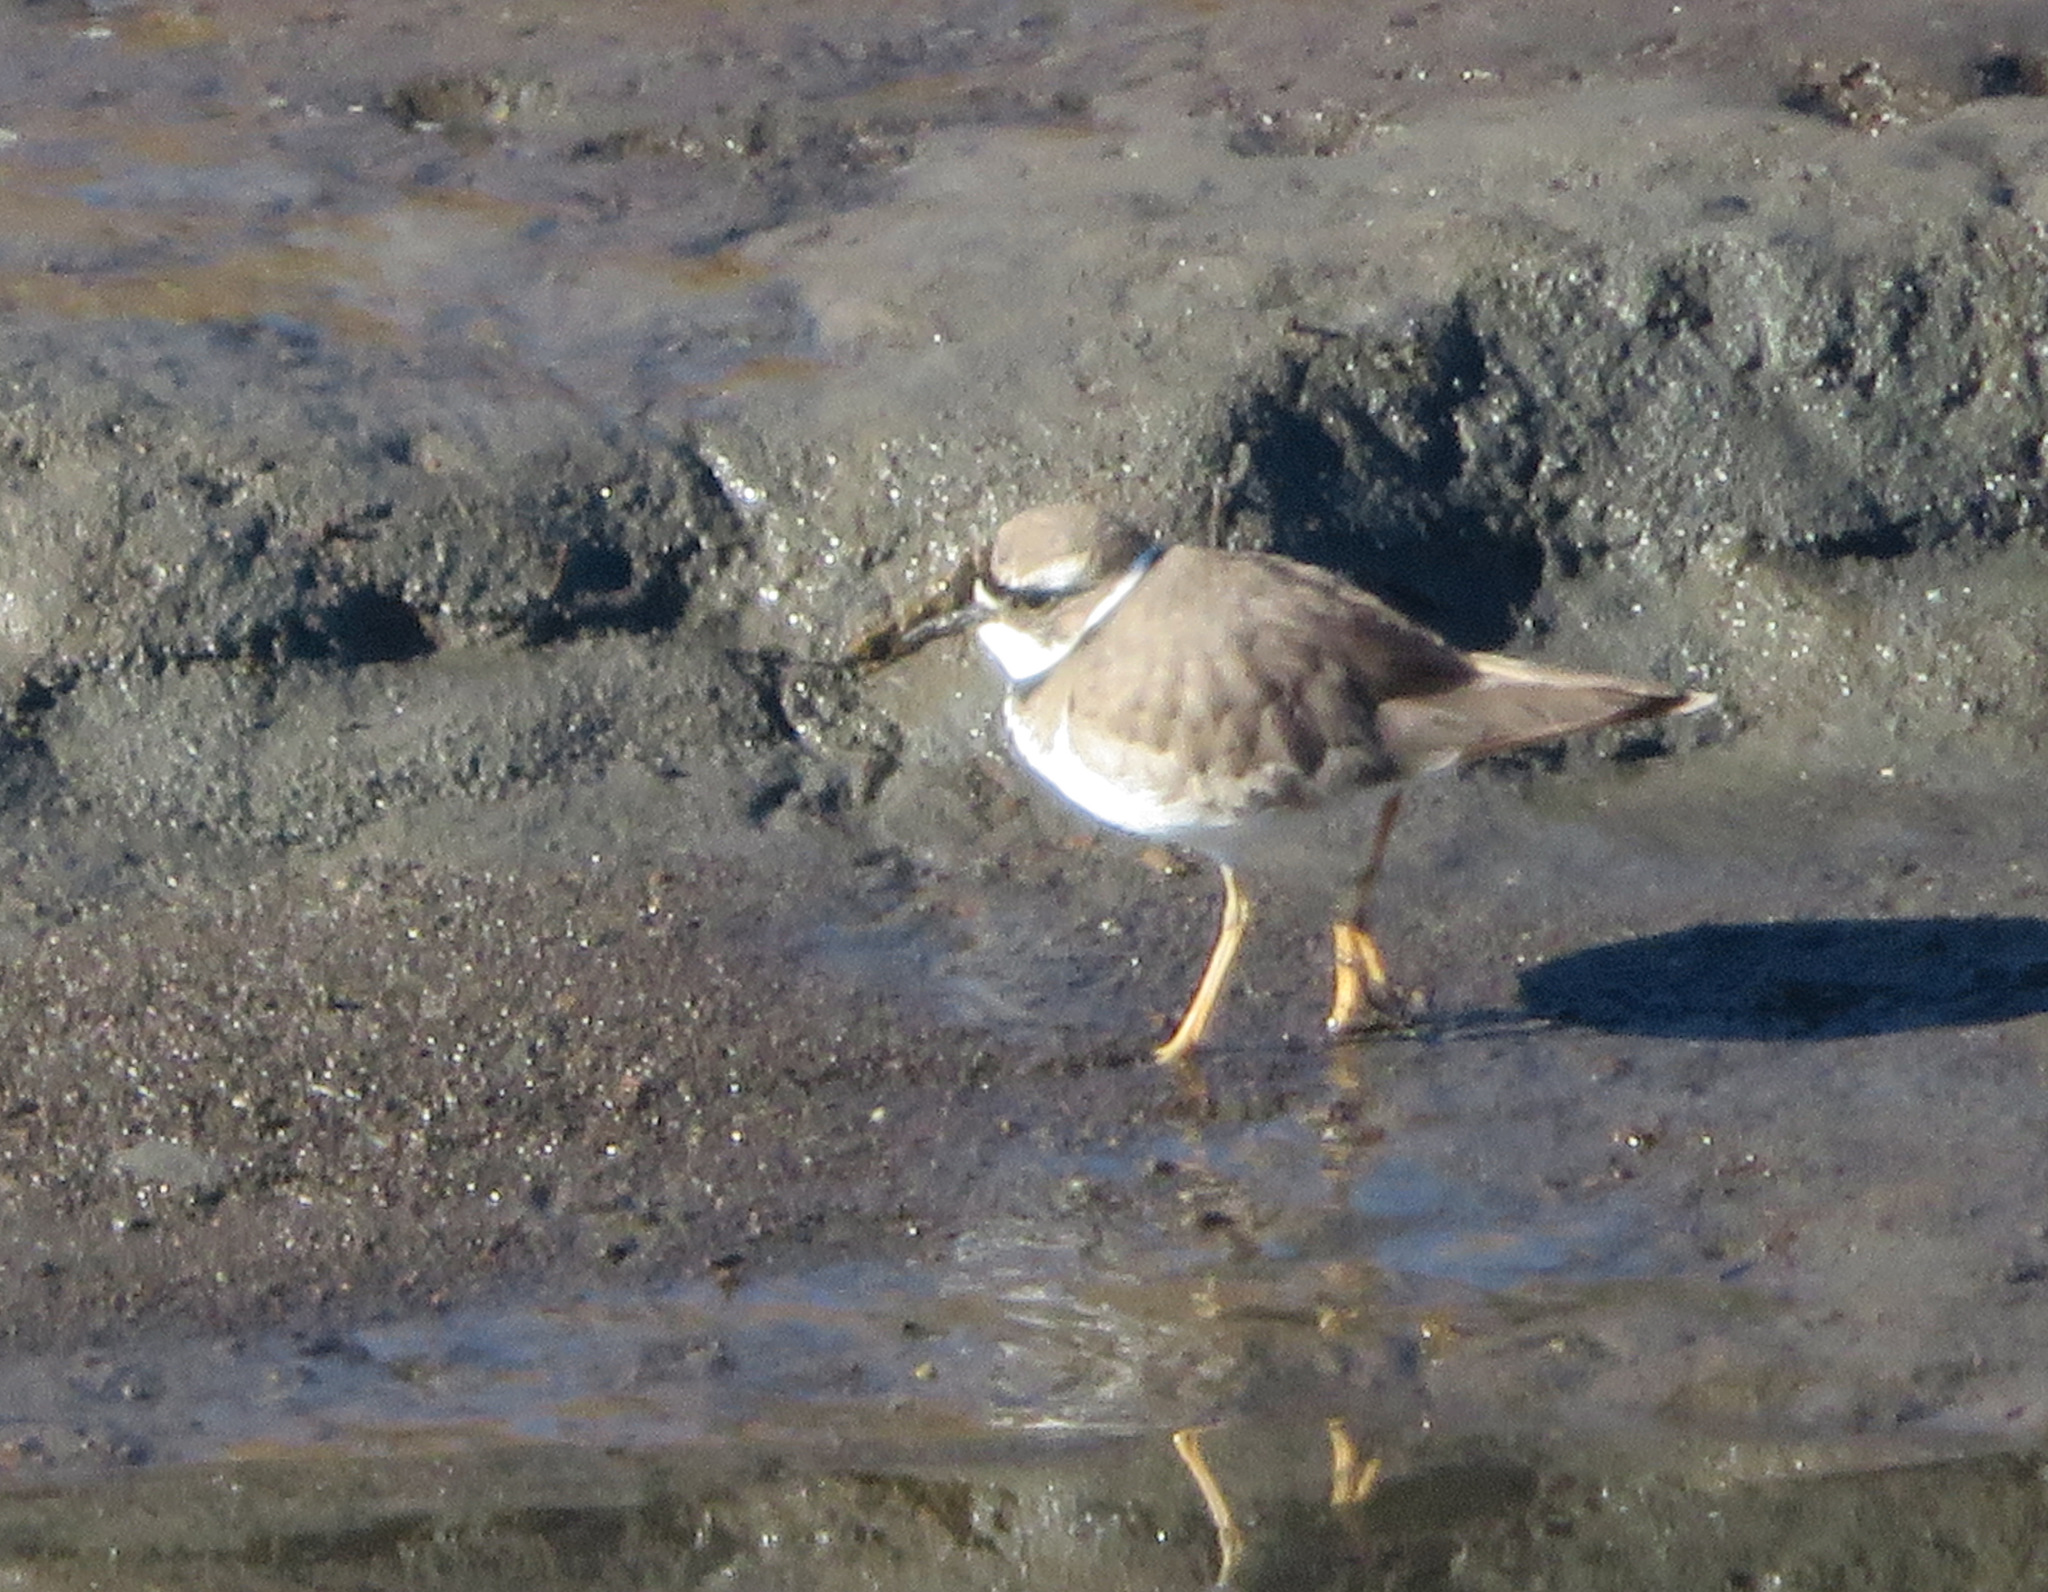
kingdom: Animalia
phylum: Chordata
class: Aves
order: Charadriiformes
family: Charadriidae
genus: Charadrius
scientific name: Charadrius placidus
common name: Long-billed plover
